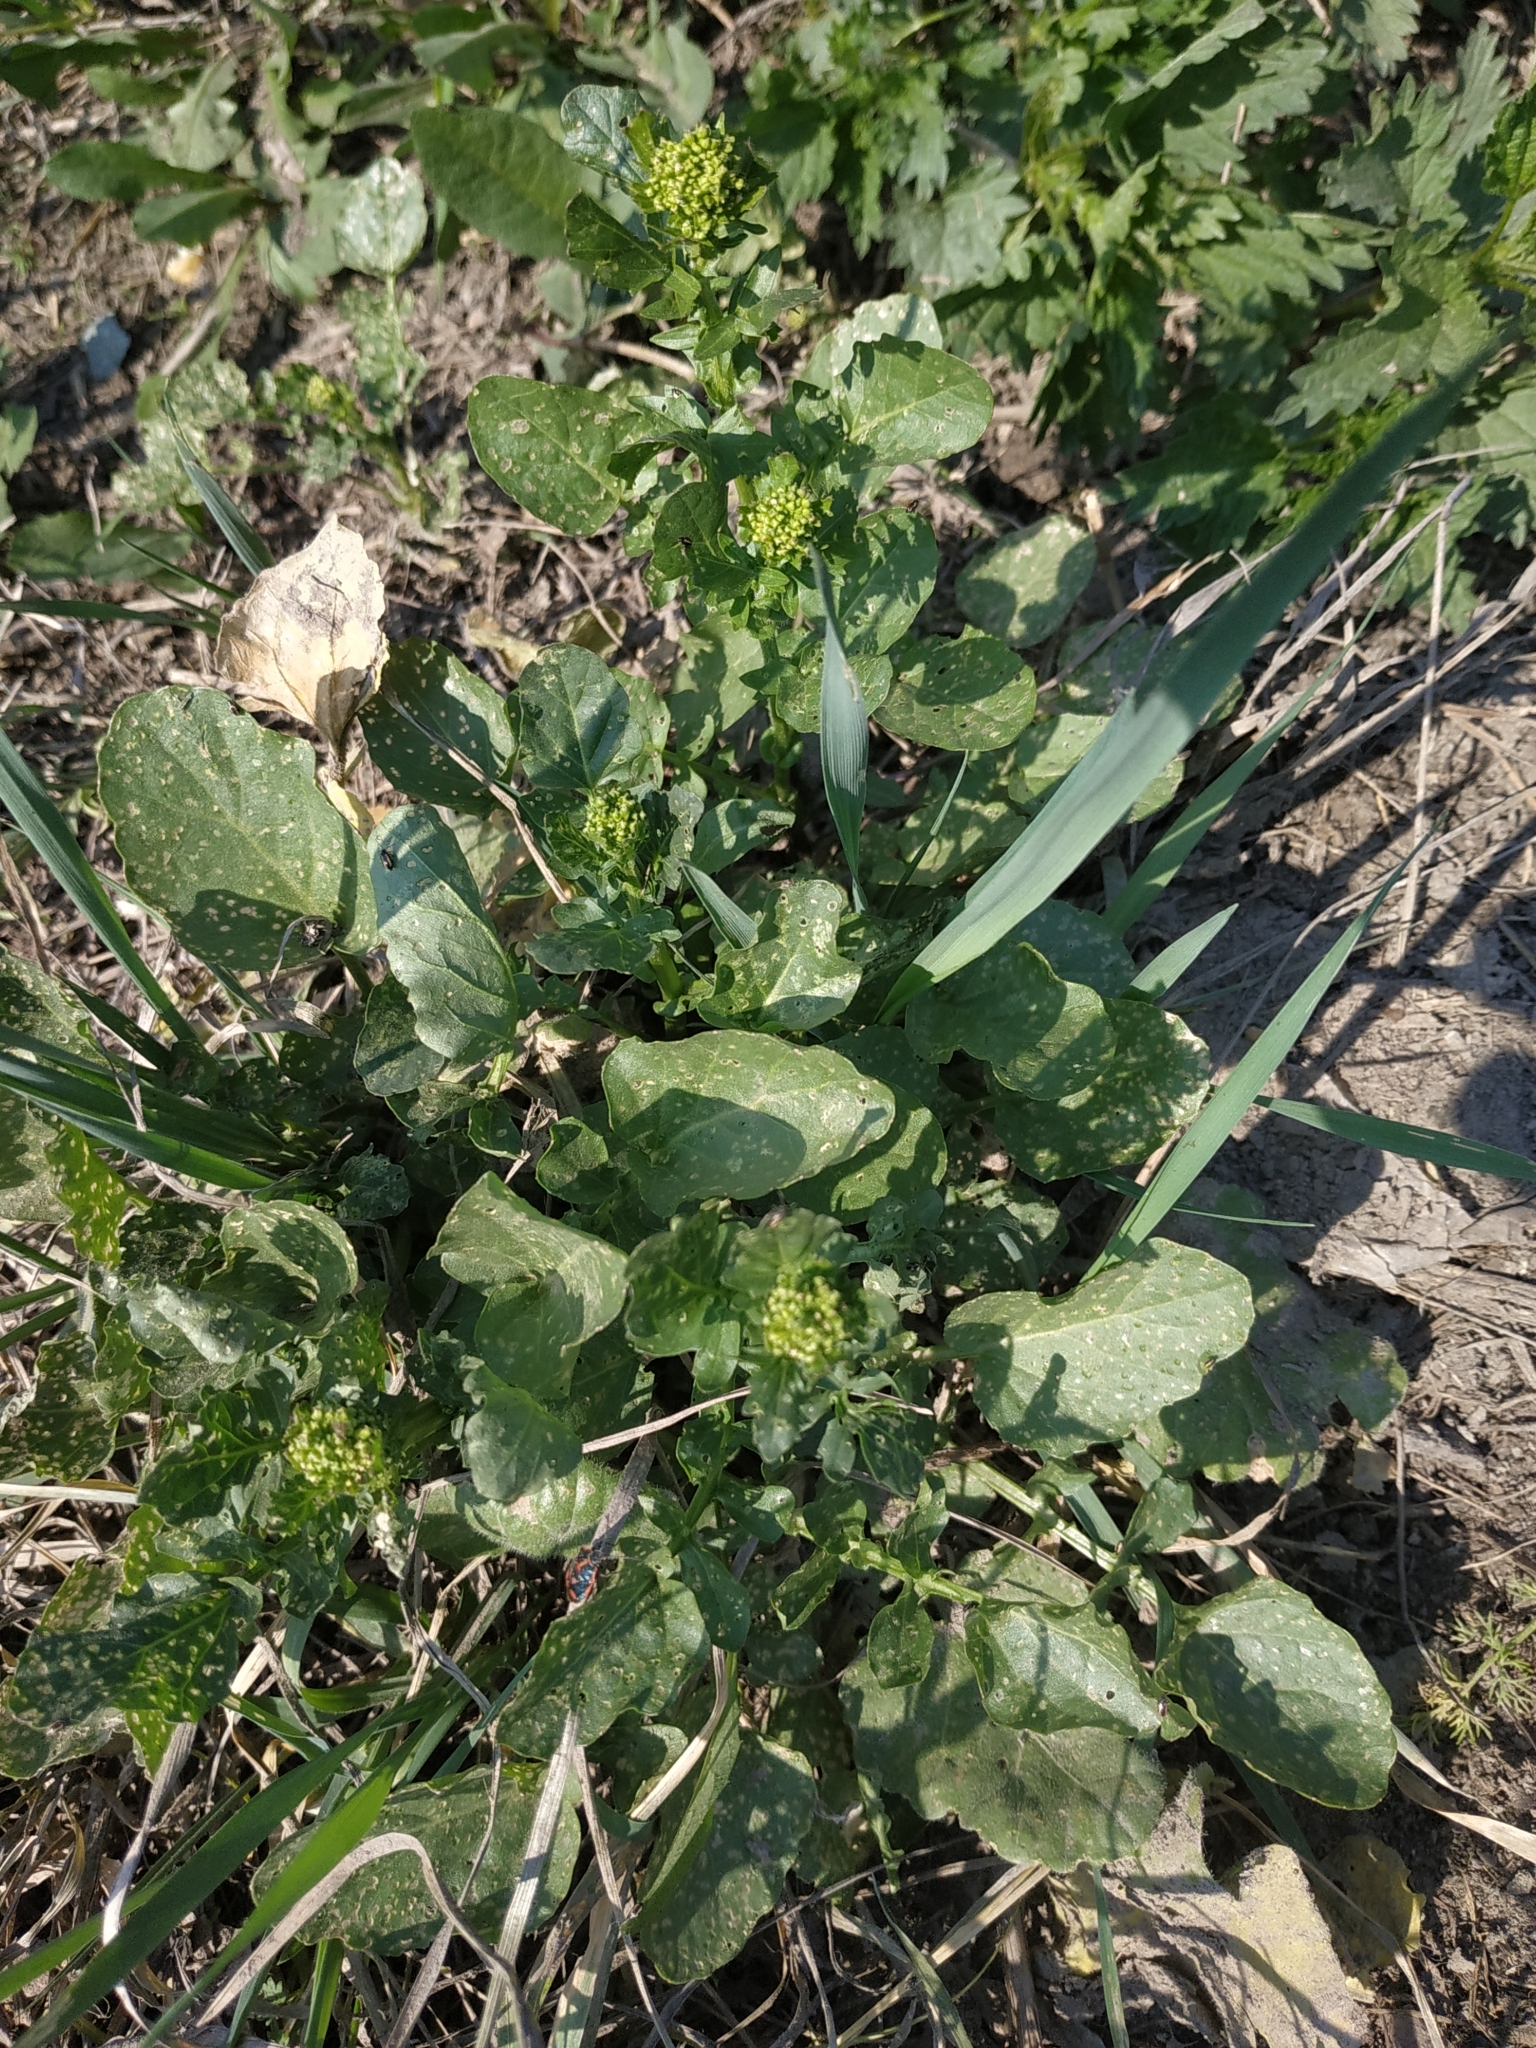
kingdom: Plantae
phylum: Tracheophyta
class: Magnoliopsida
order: Brassicales
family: Brassicaceae
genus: Barbarea
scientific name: Barbarea vulgaris
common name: Cressy-greens
